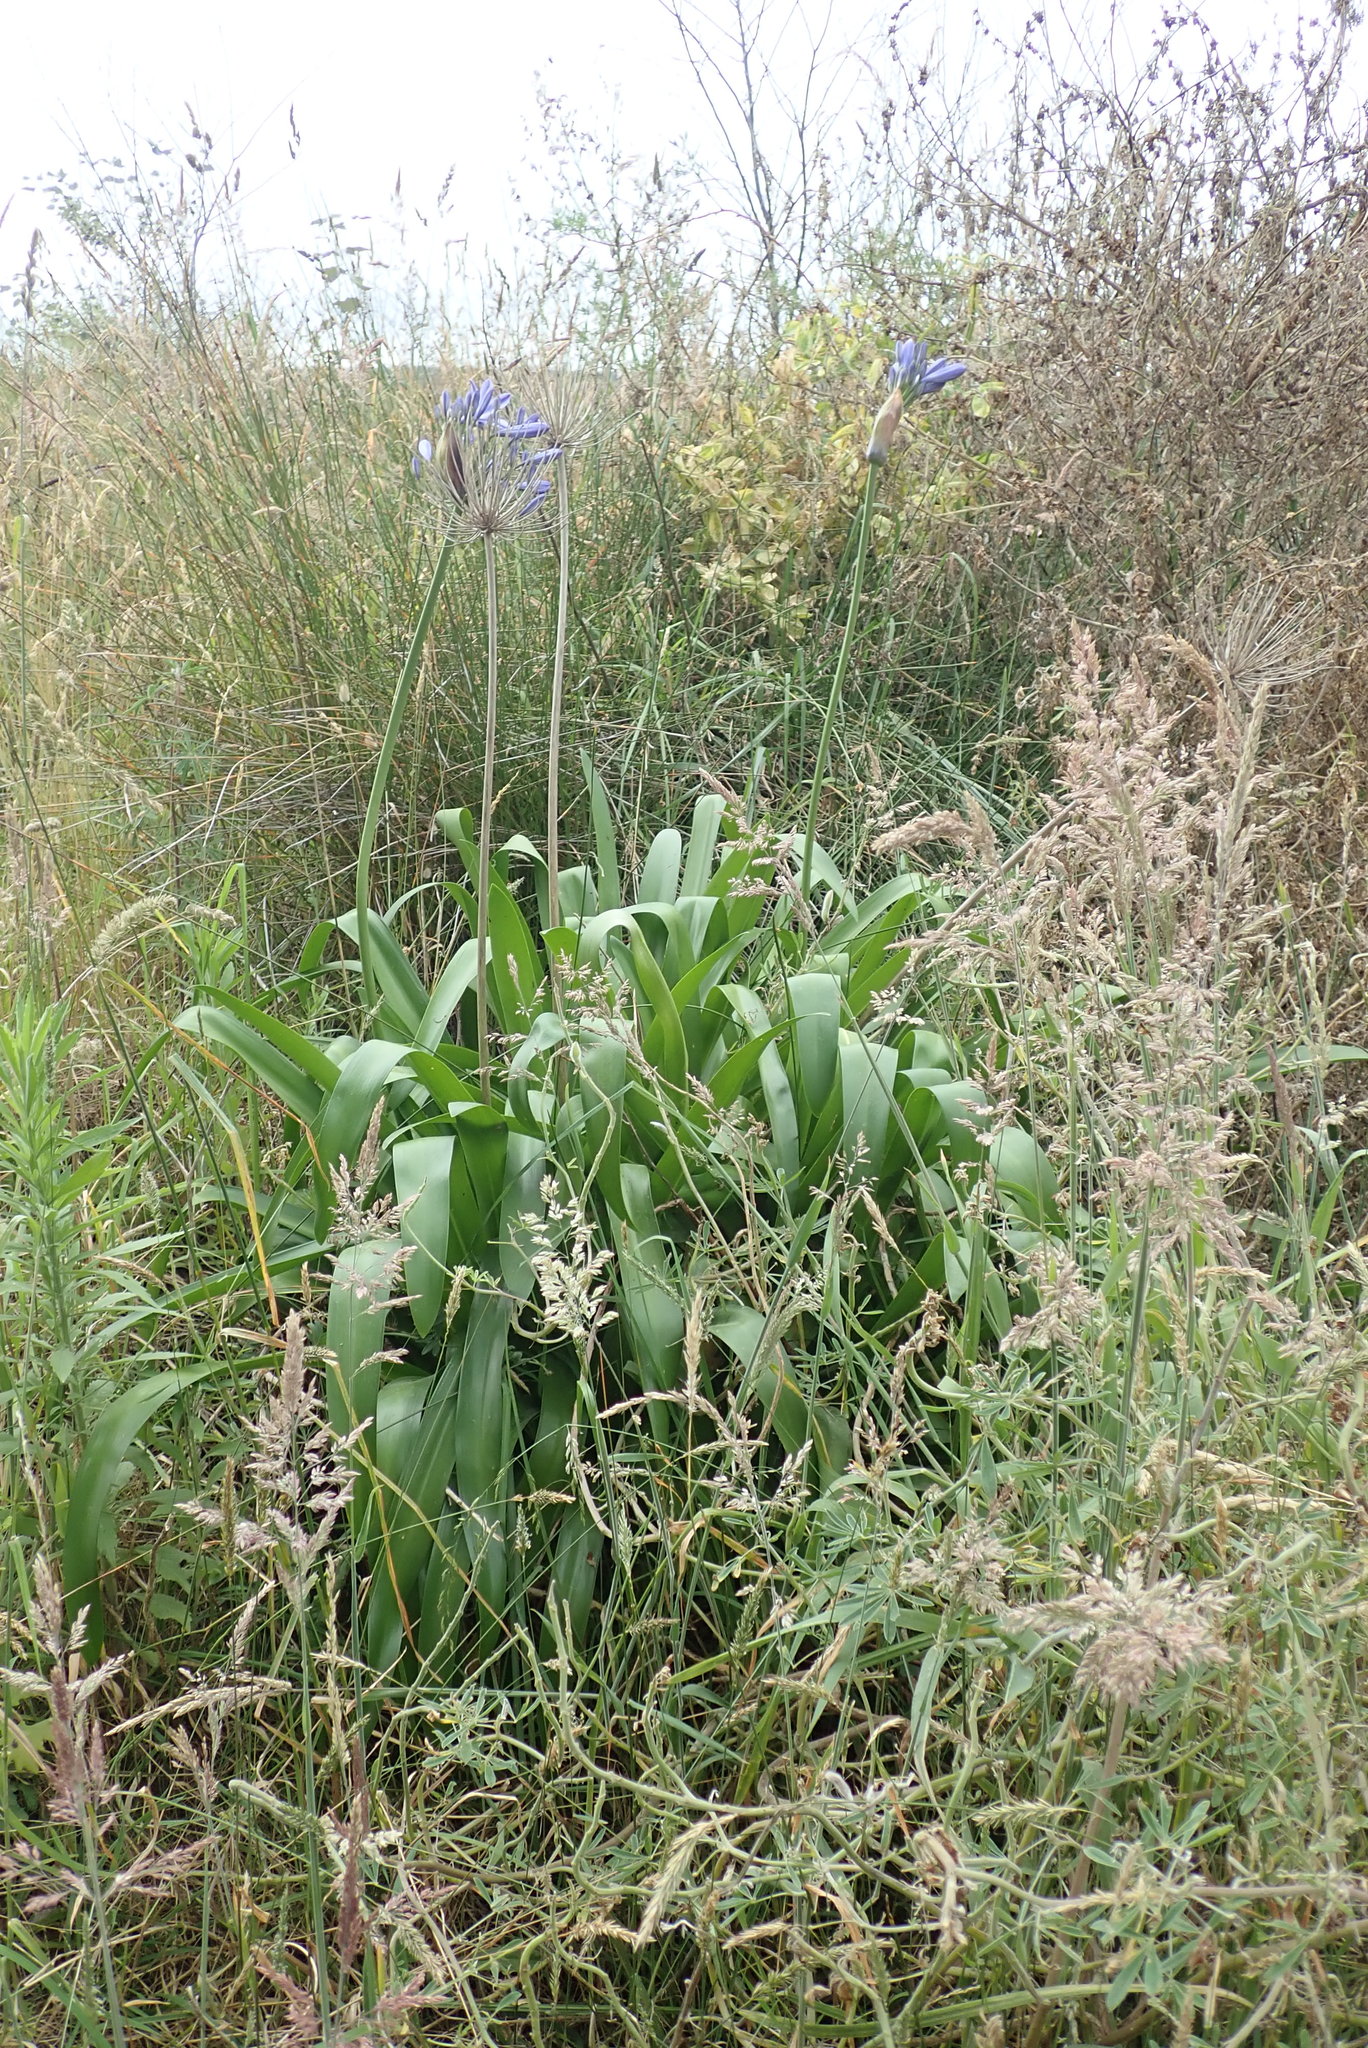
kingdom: Plantae
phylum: Tracheophyta
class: Liliopsida
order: Asparagales
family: Amaryllidaceae
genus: Agapanthus
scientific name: Agapanthus praecox
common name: African-lily
